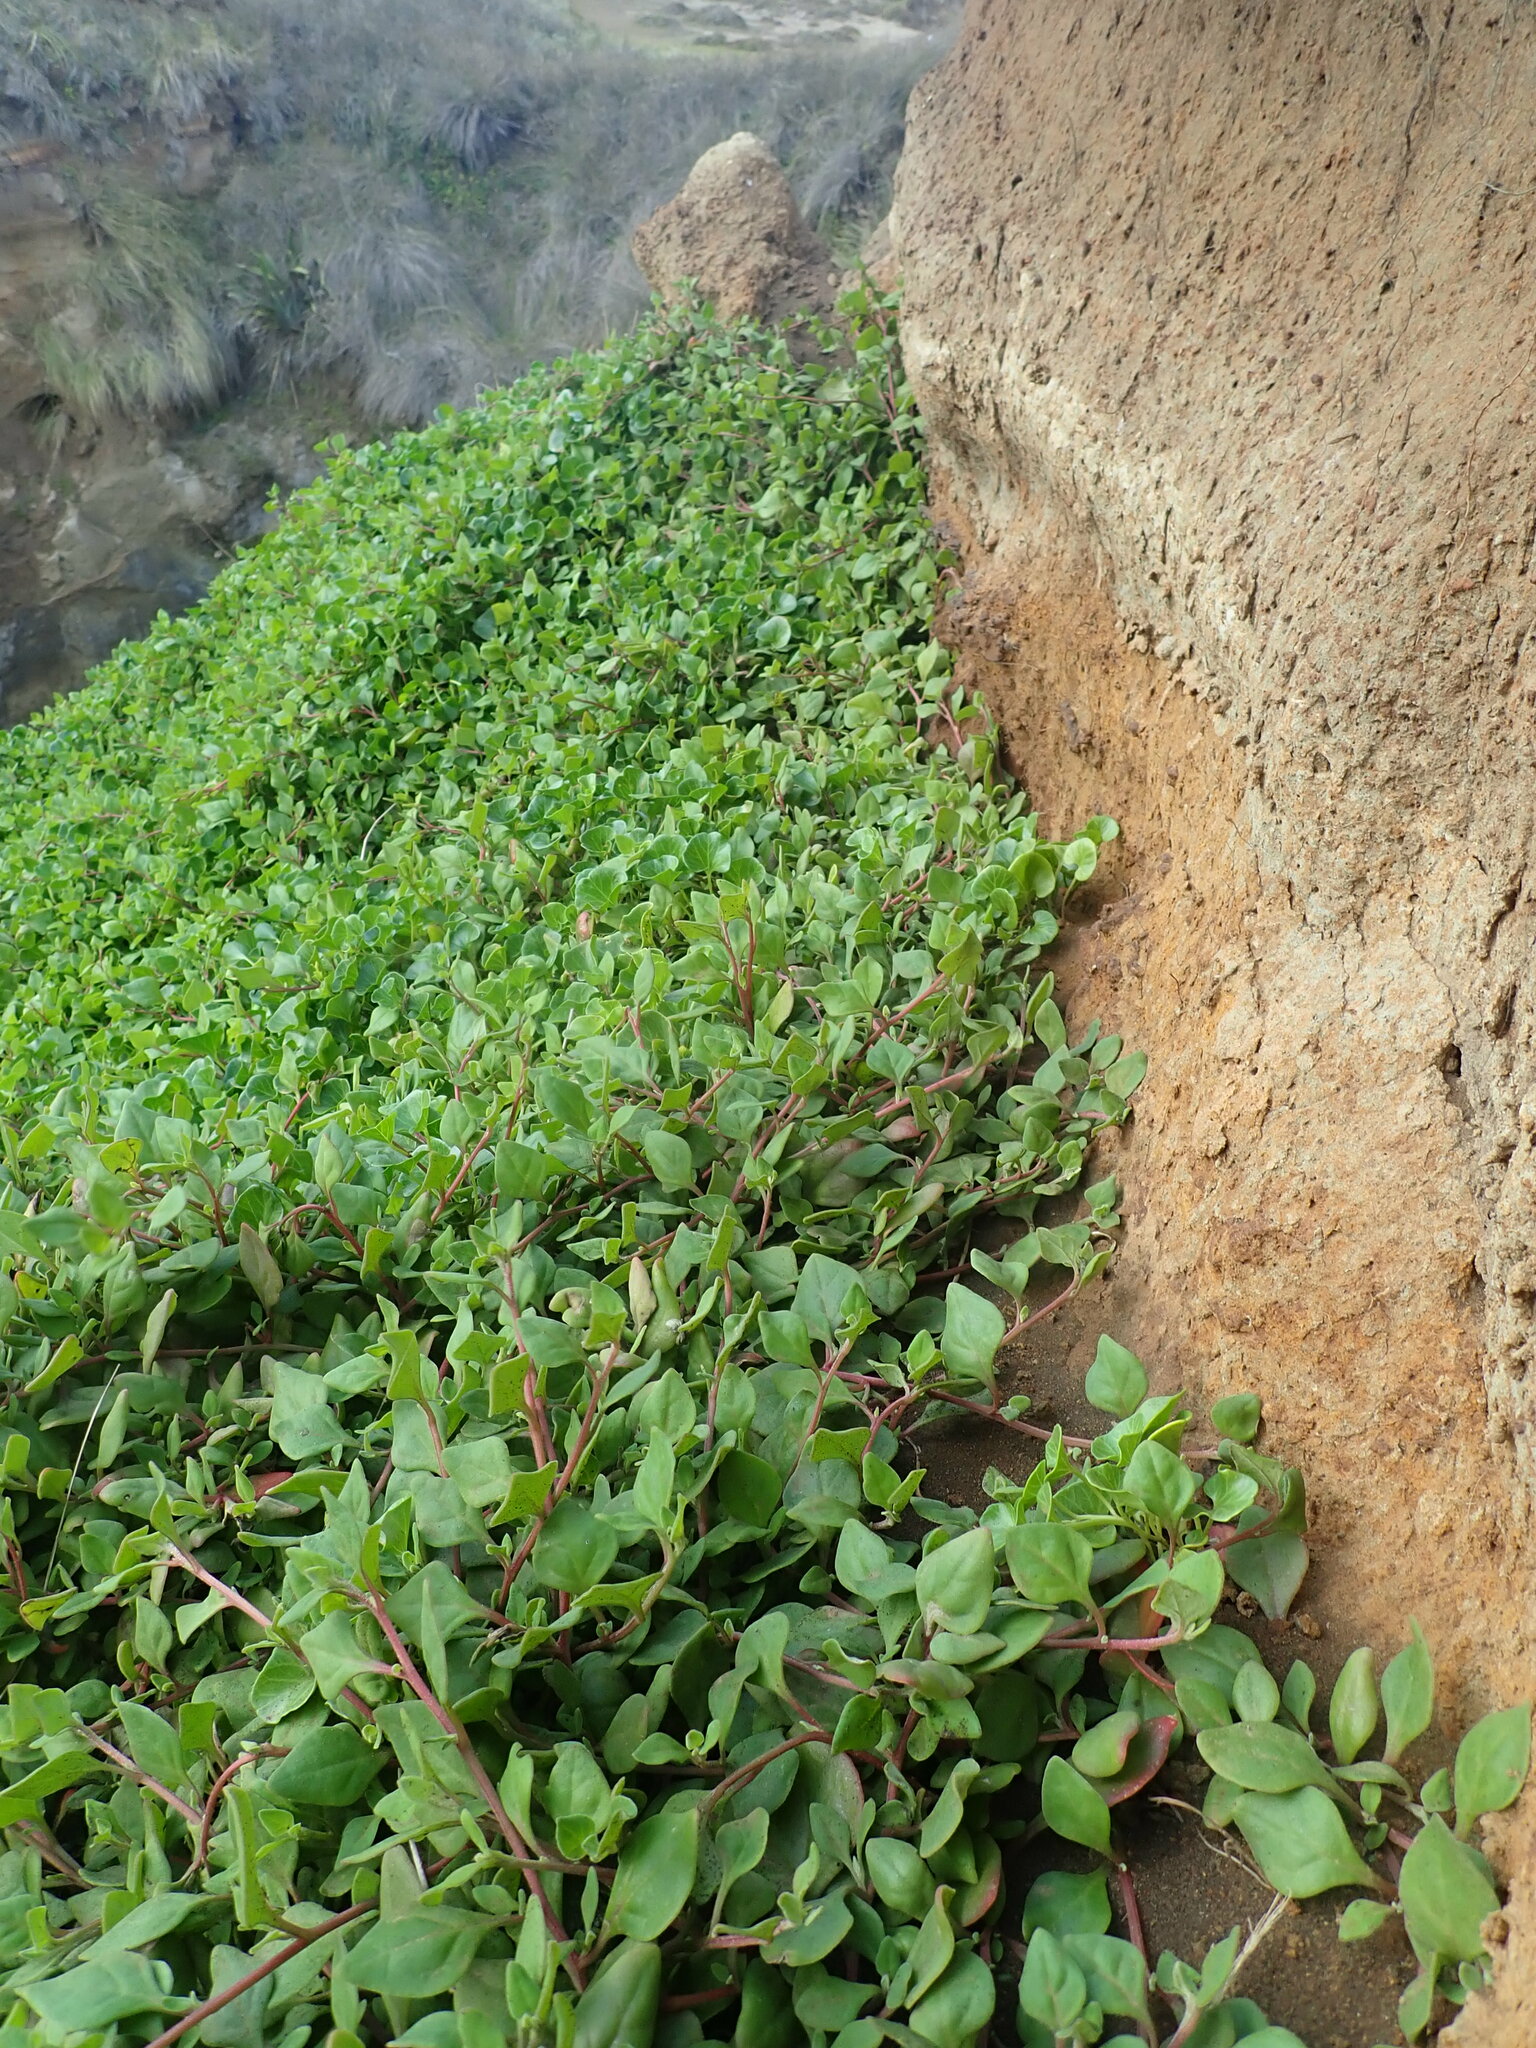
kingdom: Plantae
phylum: Tracheophyta
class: Magnoliopsida
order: Caryophyllales
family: Aizoaceae
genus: Tetragonia
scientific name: Tetragonia implexicoma
